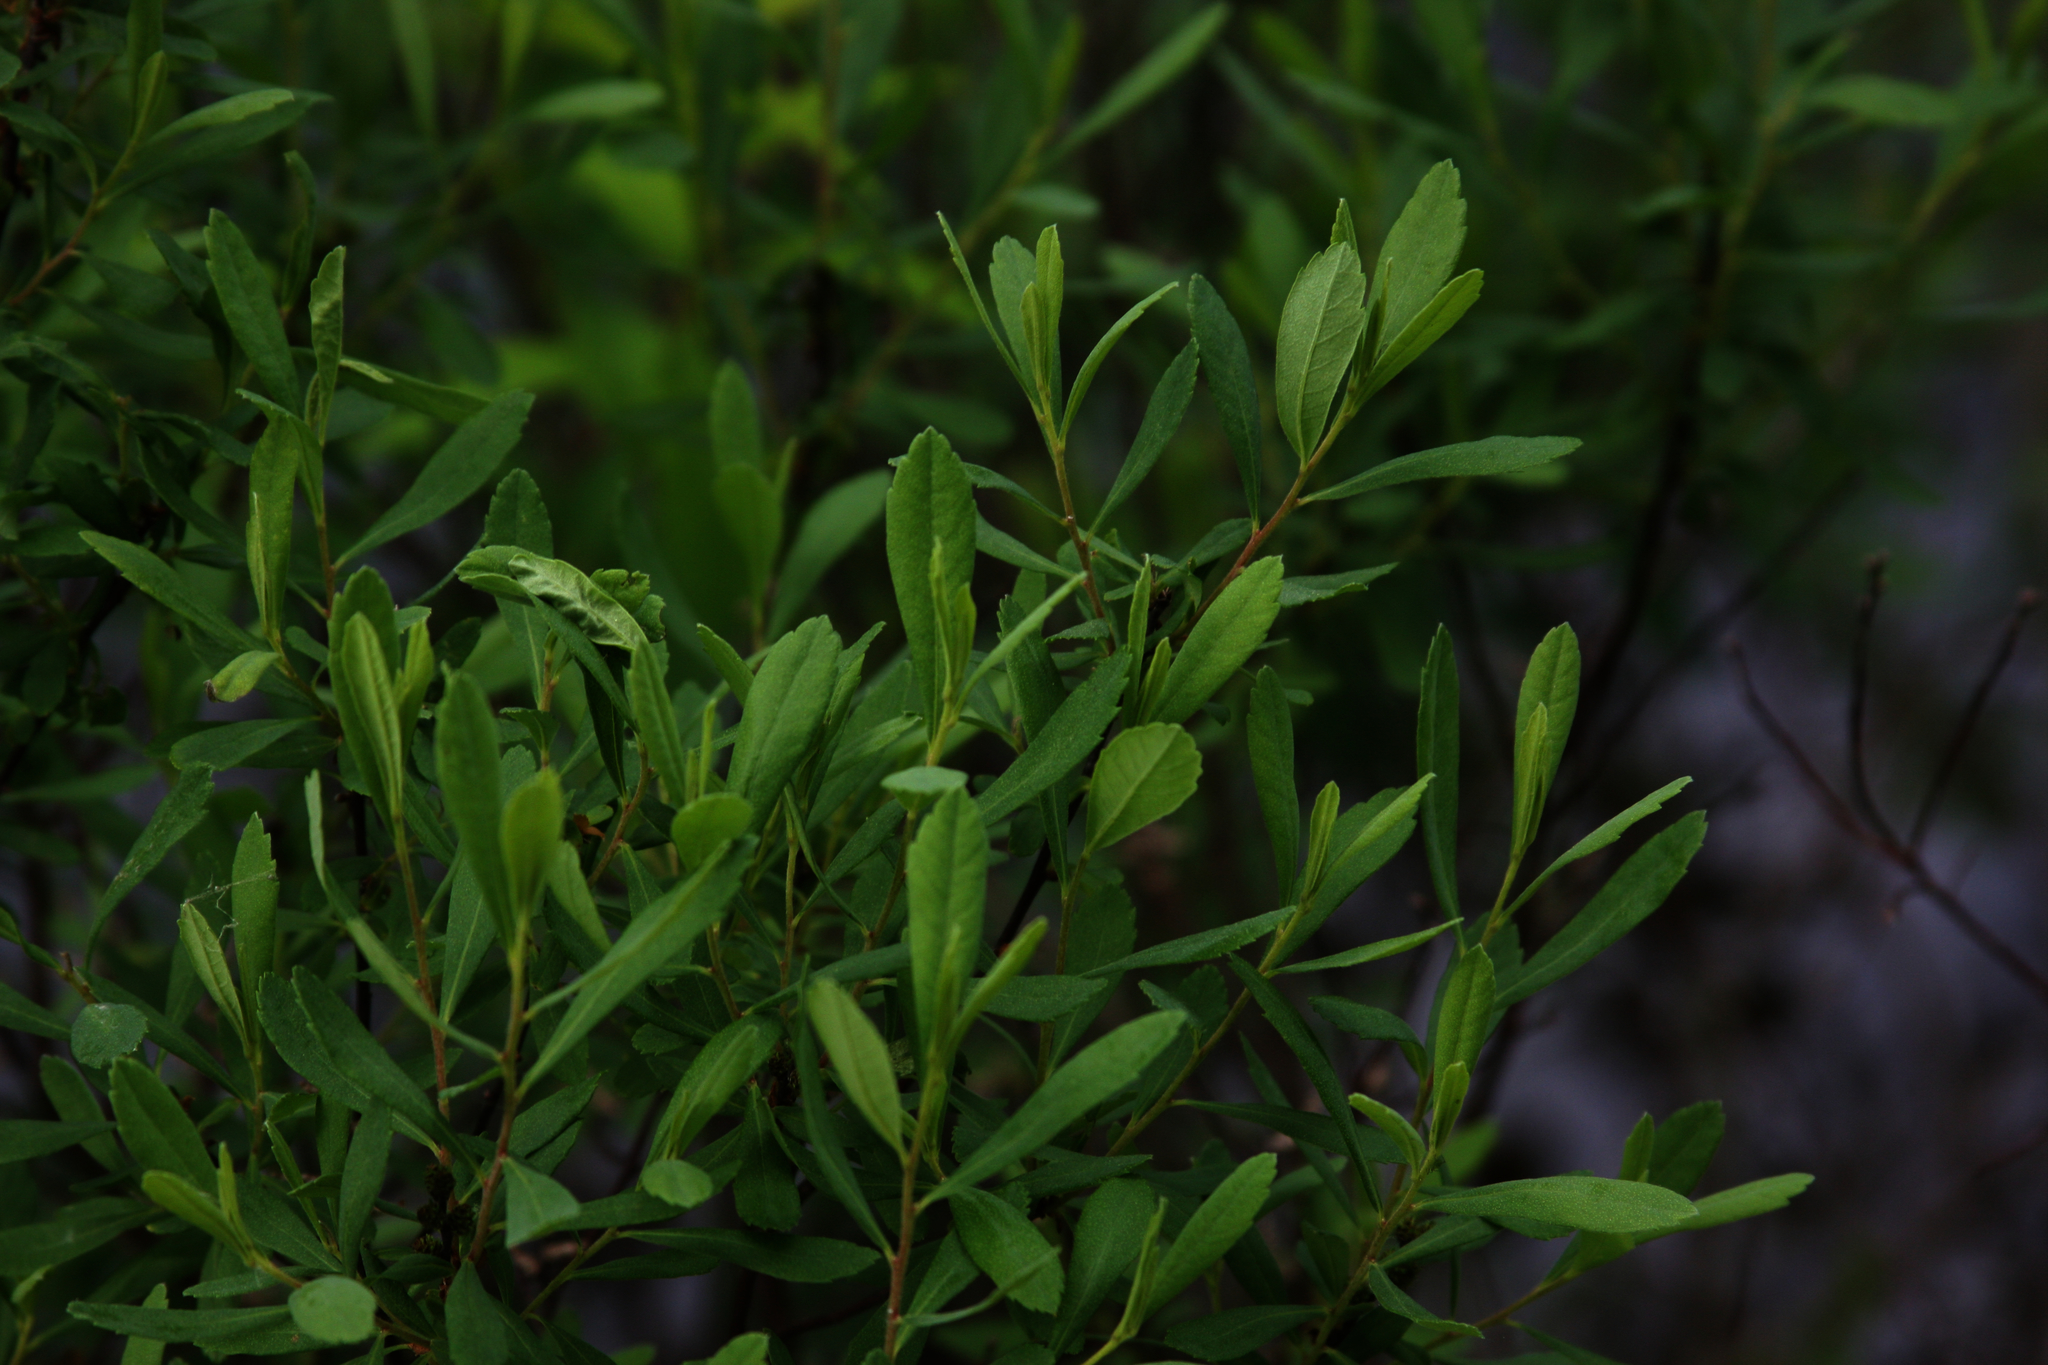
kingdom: Plantae
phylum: Tracheophyta
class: Magnoliopsida
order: Fagales
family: Myricaceae
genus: Myrica
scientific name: Myrica gale
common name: Sweet gale
